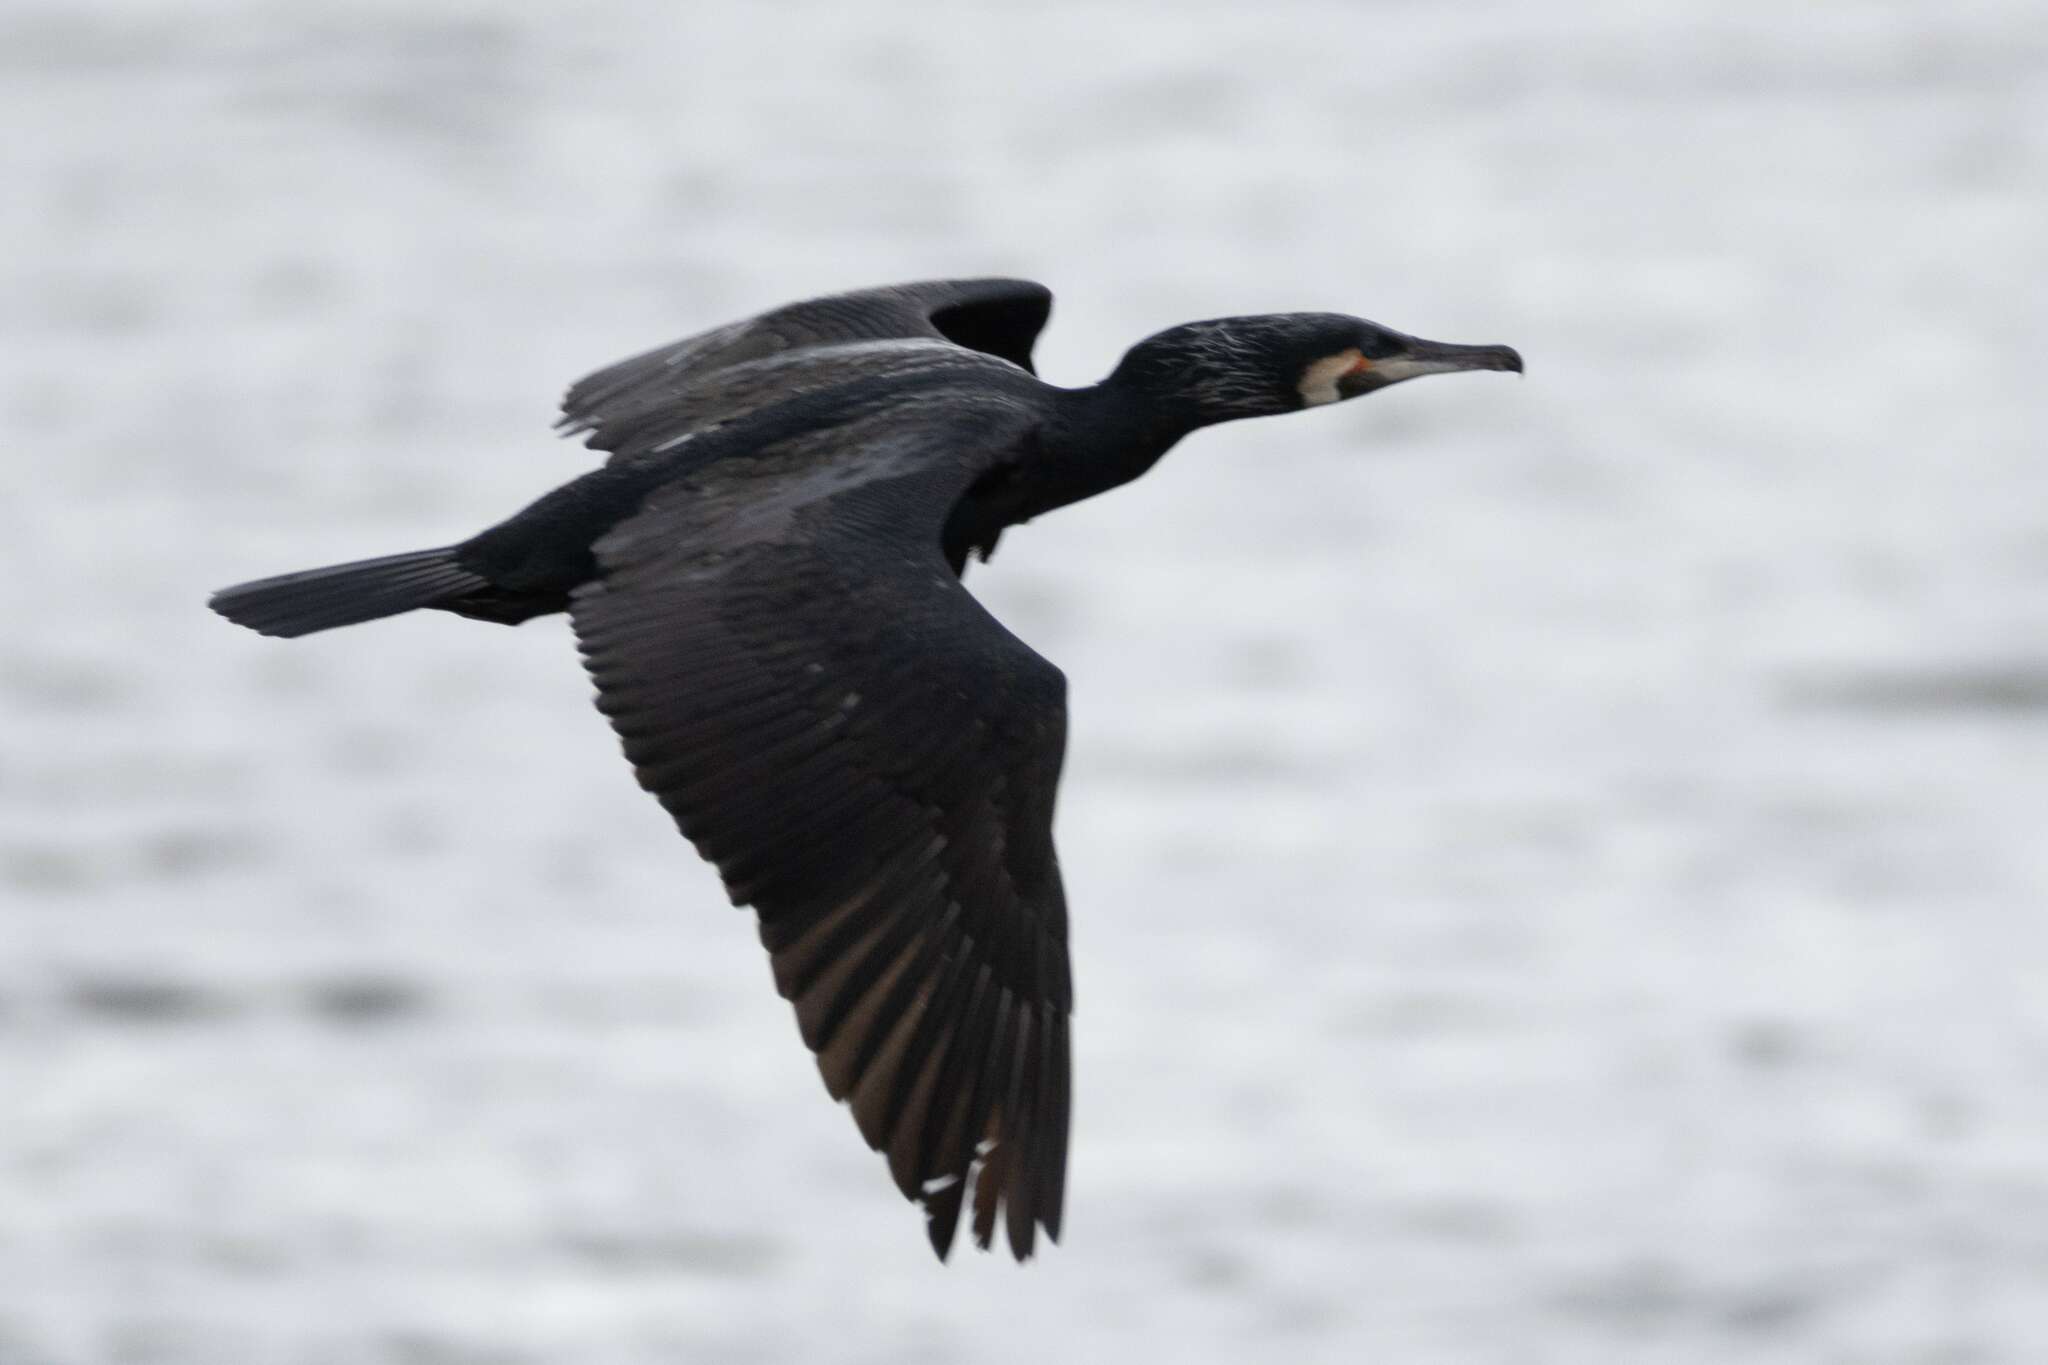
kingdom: Animalia
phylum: Chordata
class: Aves
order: Suliformes
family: Phalacrocoracidae
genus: Phalacrocorax
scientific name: Phalacrocorax carbo
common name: Great cormorant
